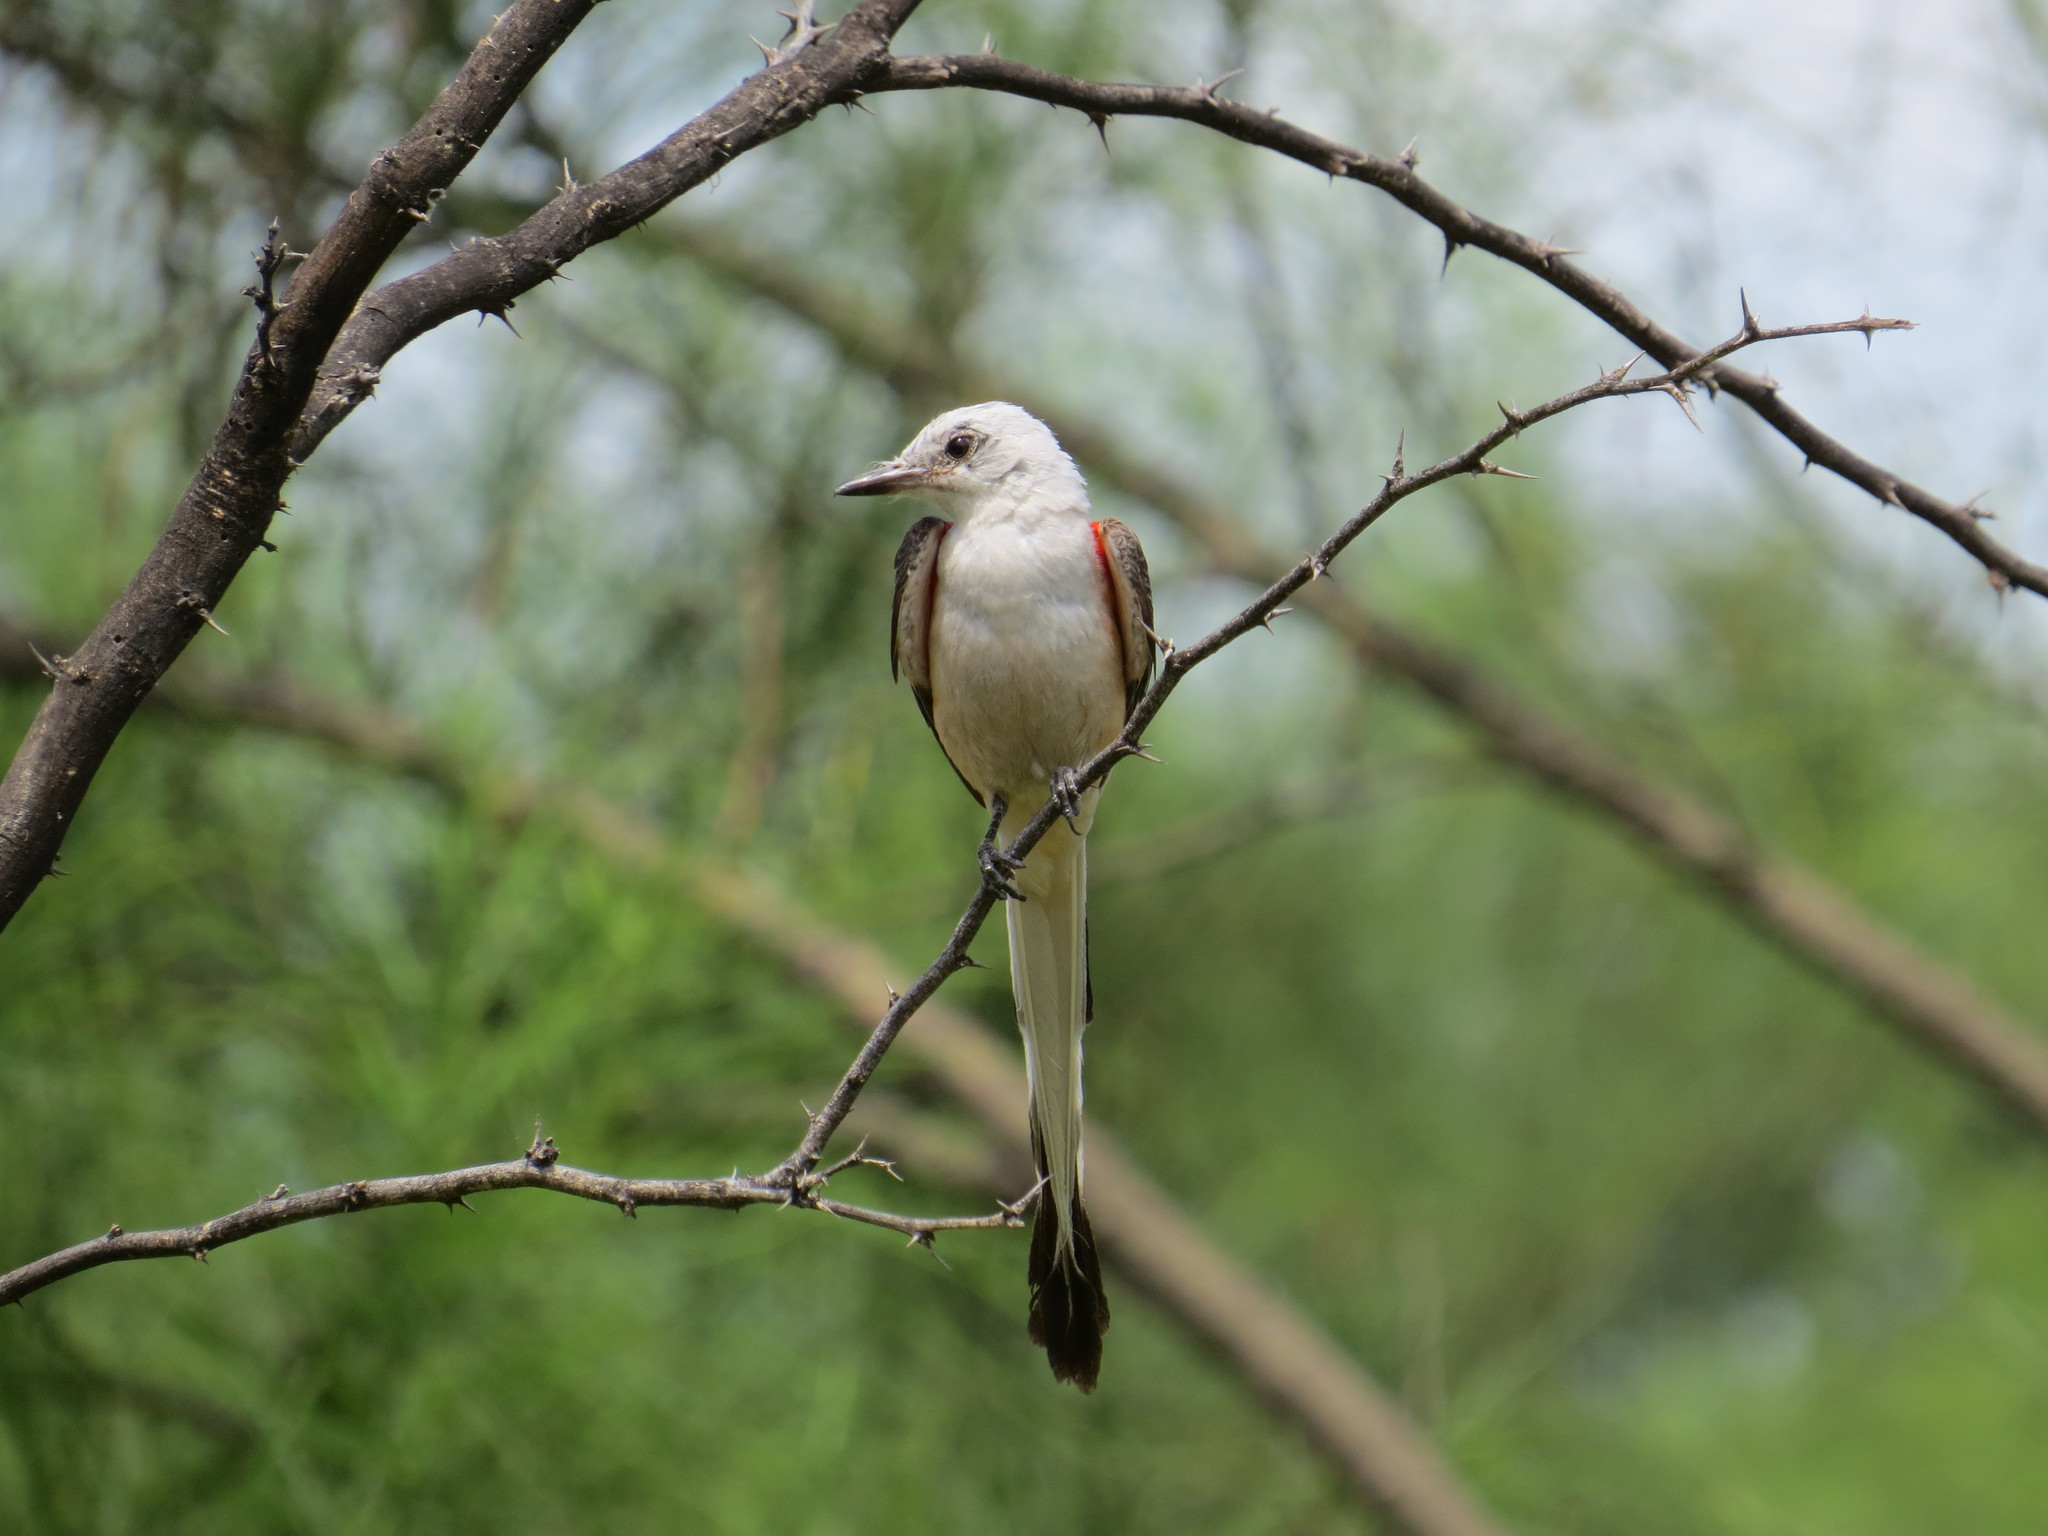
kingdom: Animalia
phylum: Chordata
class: Aves
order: Passeriformes
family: Tyrannidae
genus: Tyrannus
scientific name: Tyrannus forficatus
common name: Scissor-tailed flycatcher
